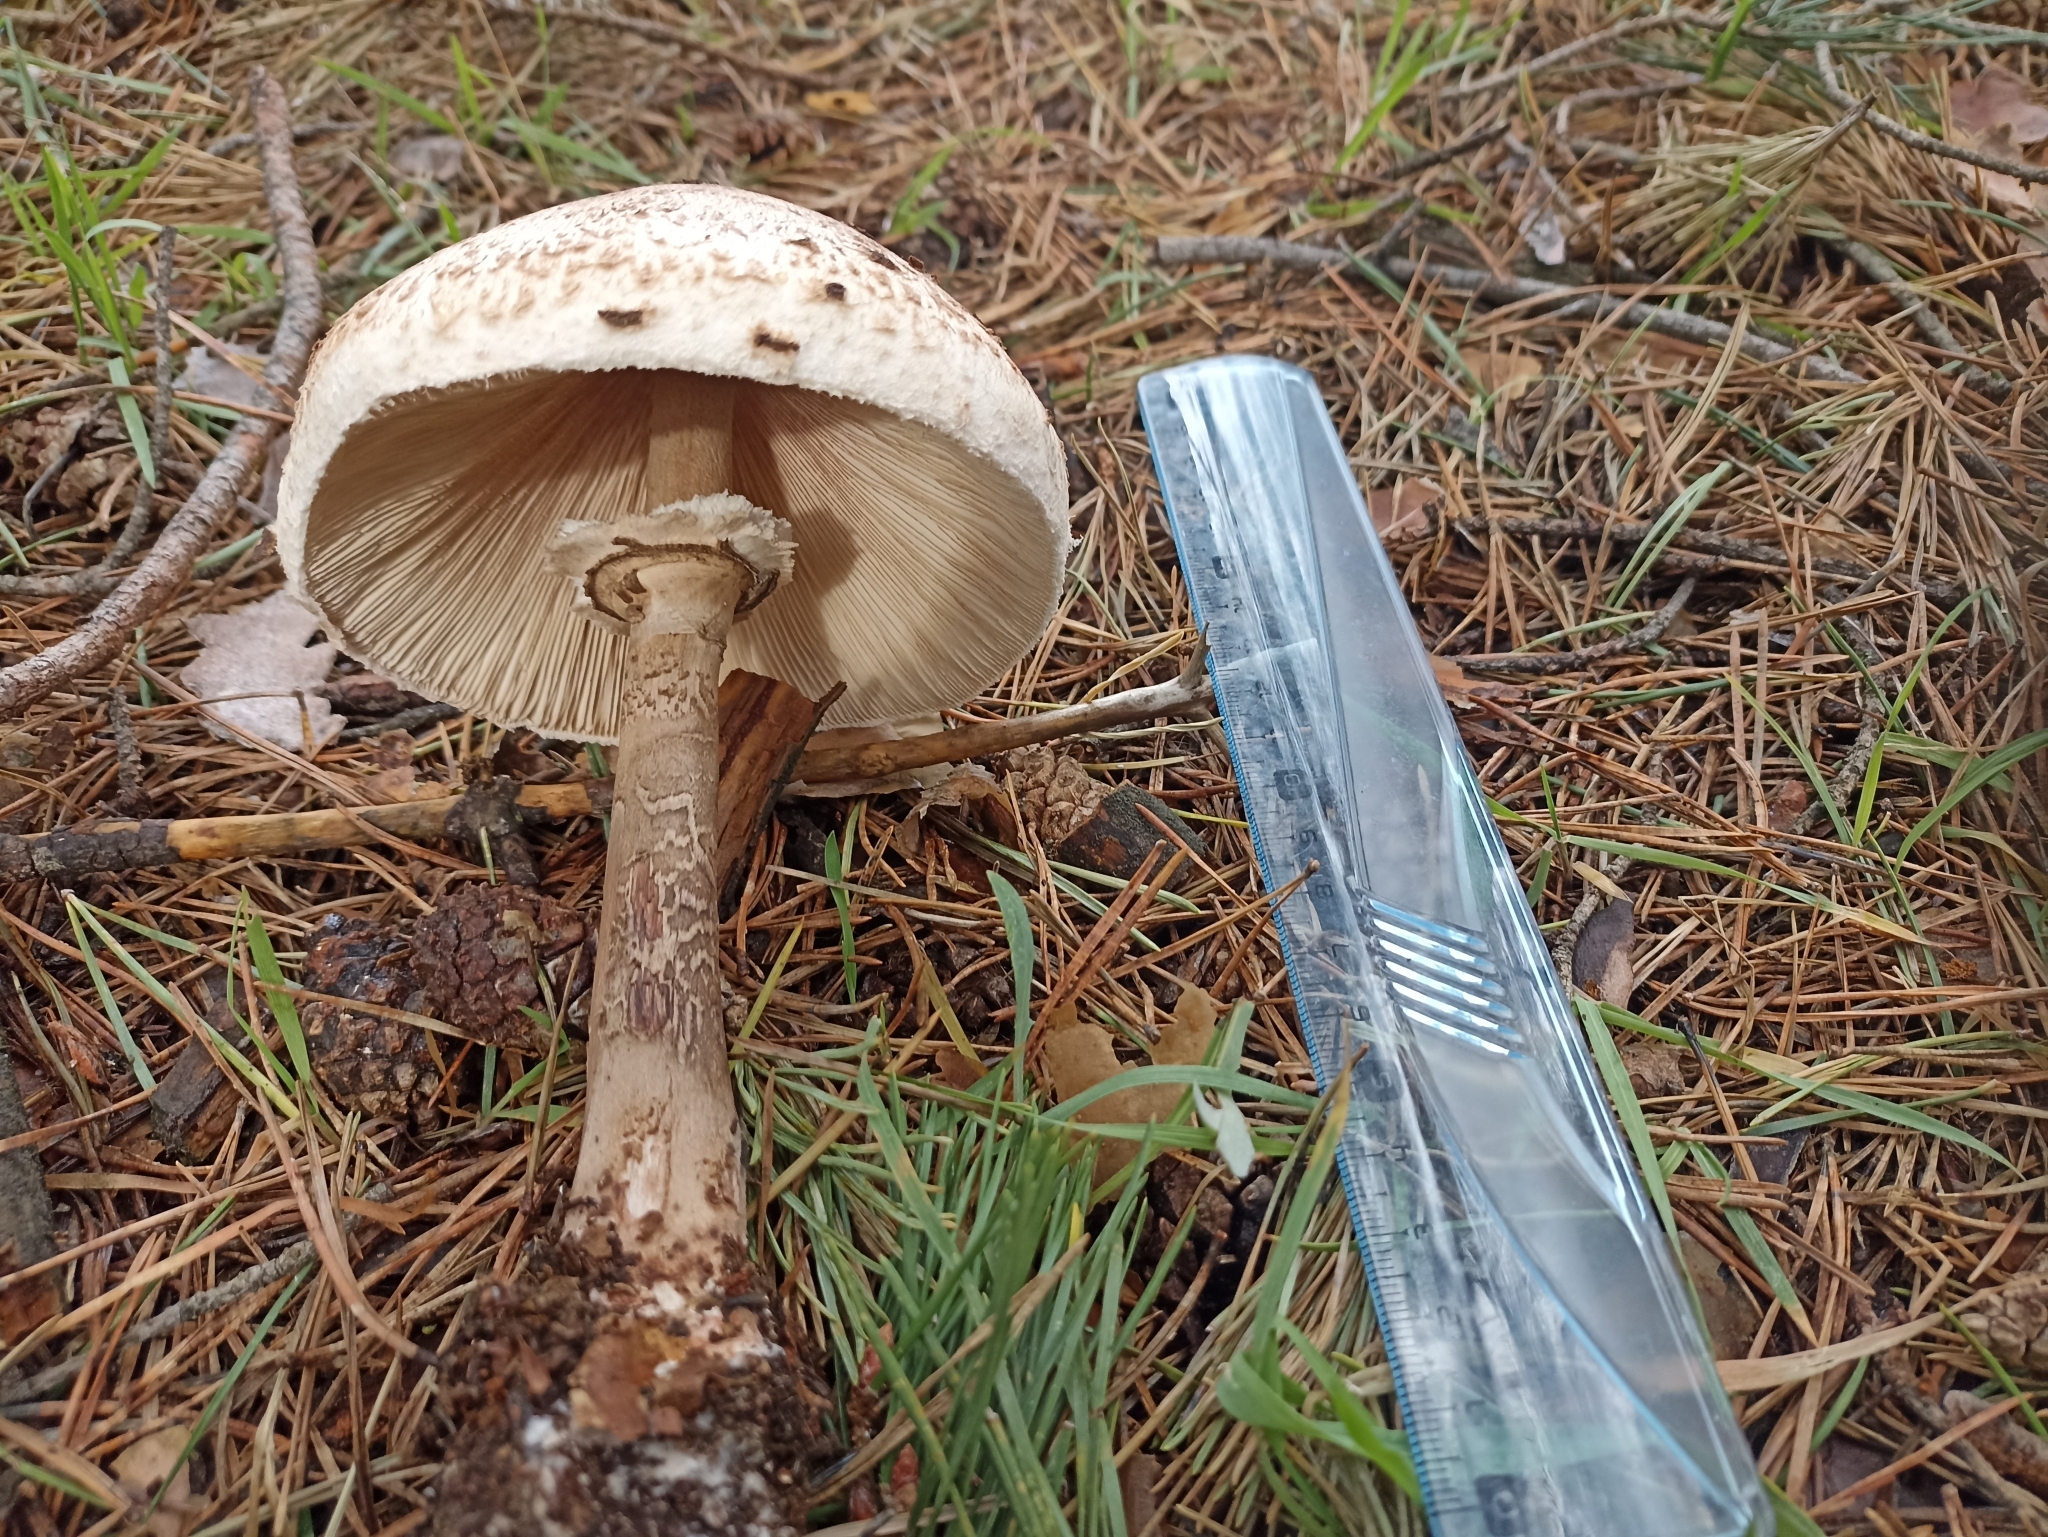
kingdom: Fungi
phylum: Basidiomycota
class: Agaricomycetes
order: Agaricales
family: Agaricaceae
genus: Macrolepiota
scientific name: Macrolepiota procera
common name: Parasol
